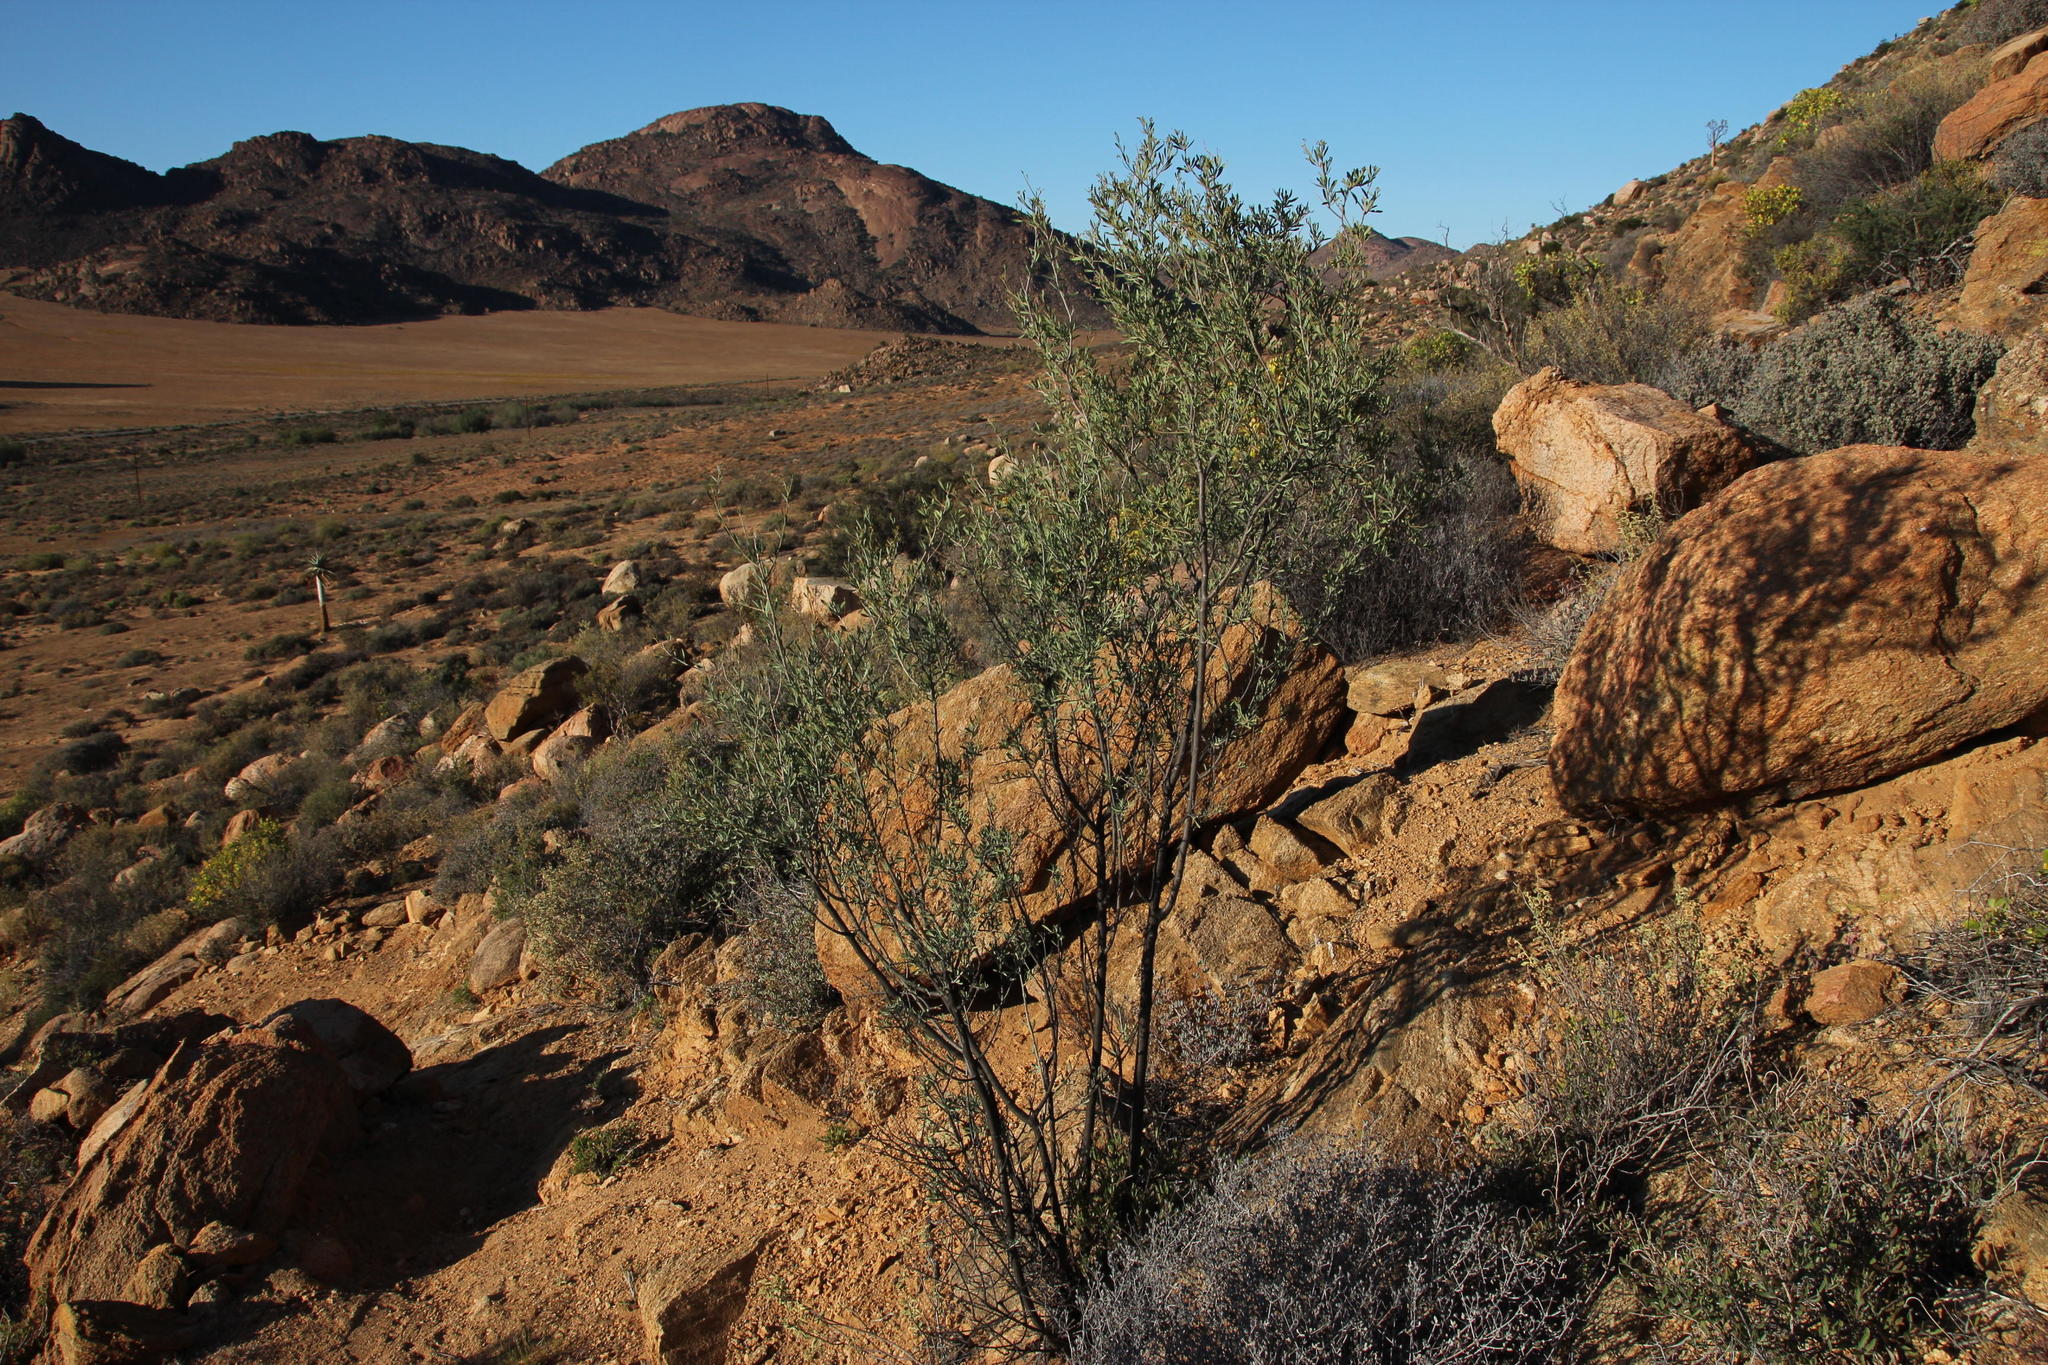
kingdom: Plantae
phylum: Tracheophyta
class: Magnoliopsida
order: Ericales
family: Ebenaceae
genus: Diospyros
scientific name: Diospyros pubescens
